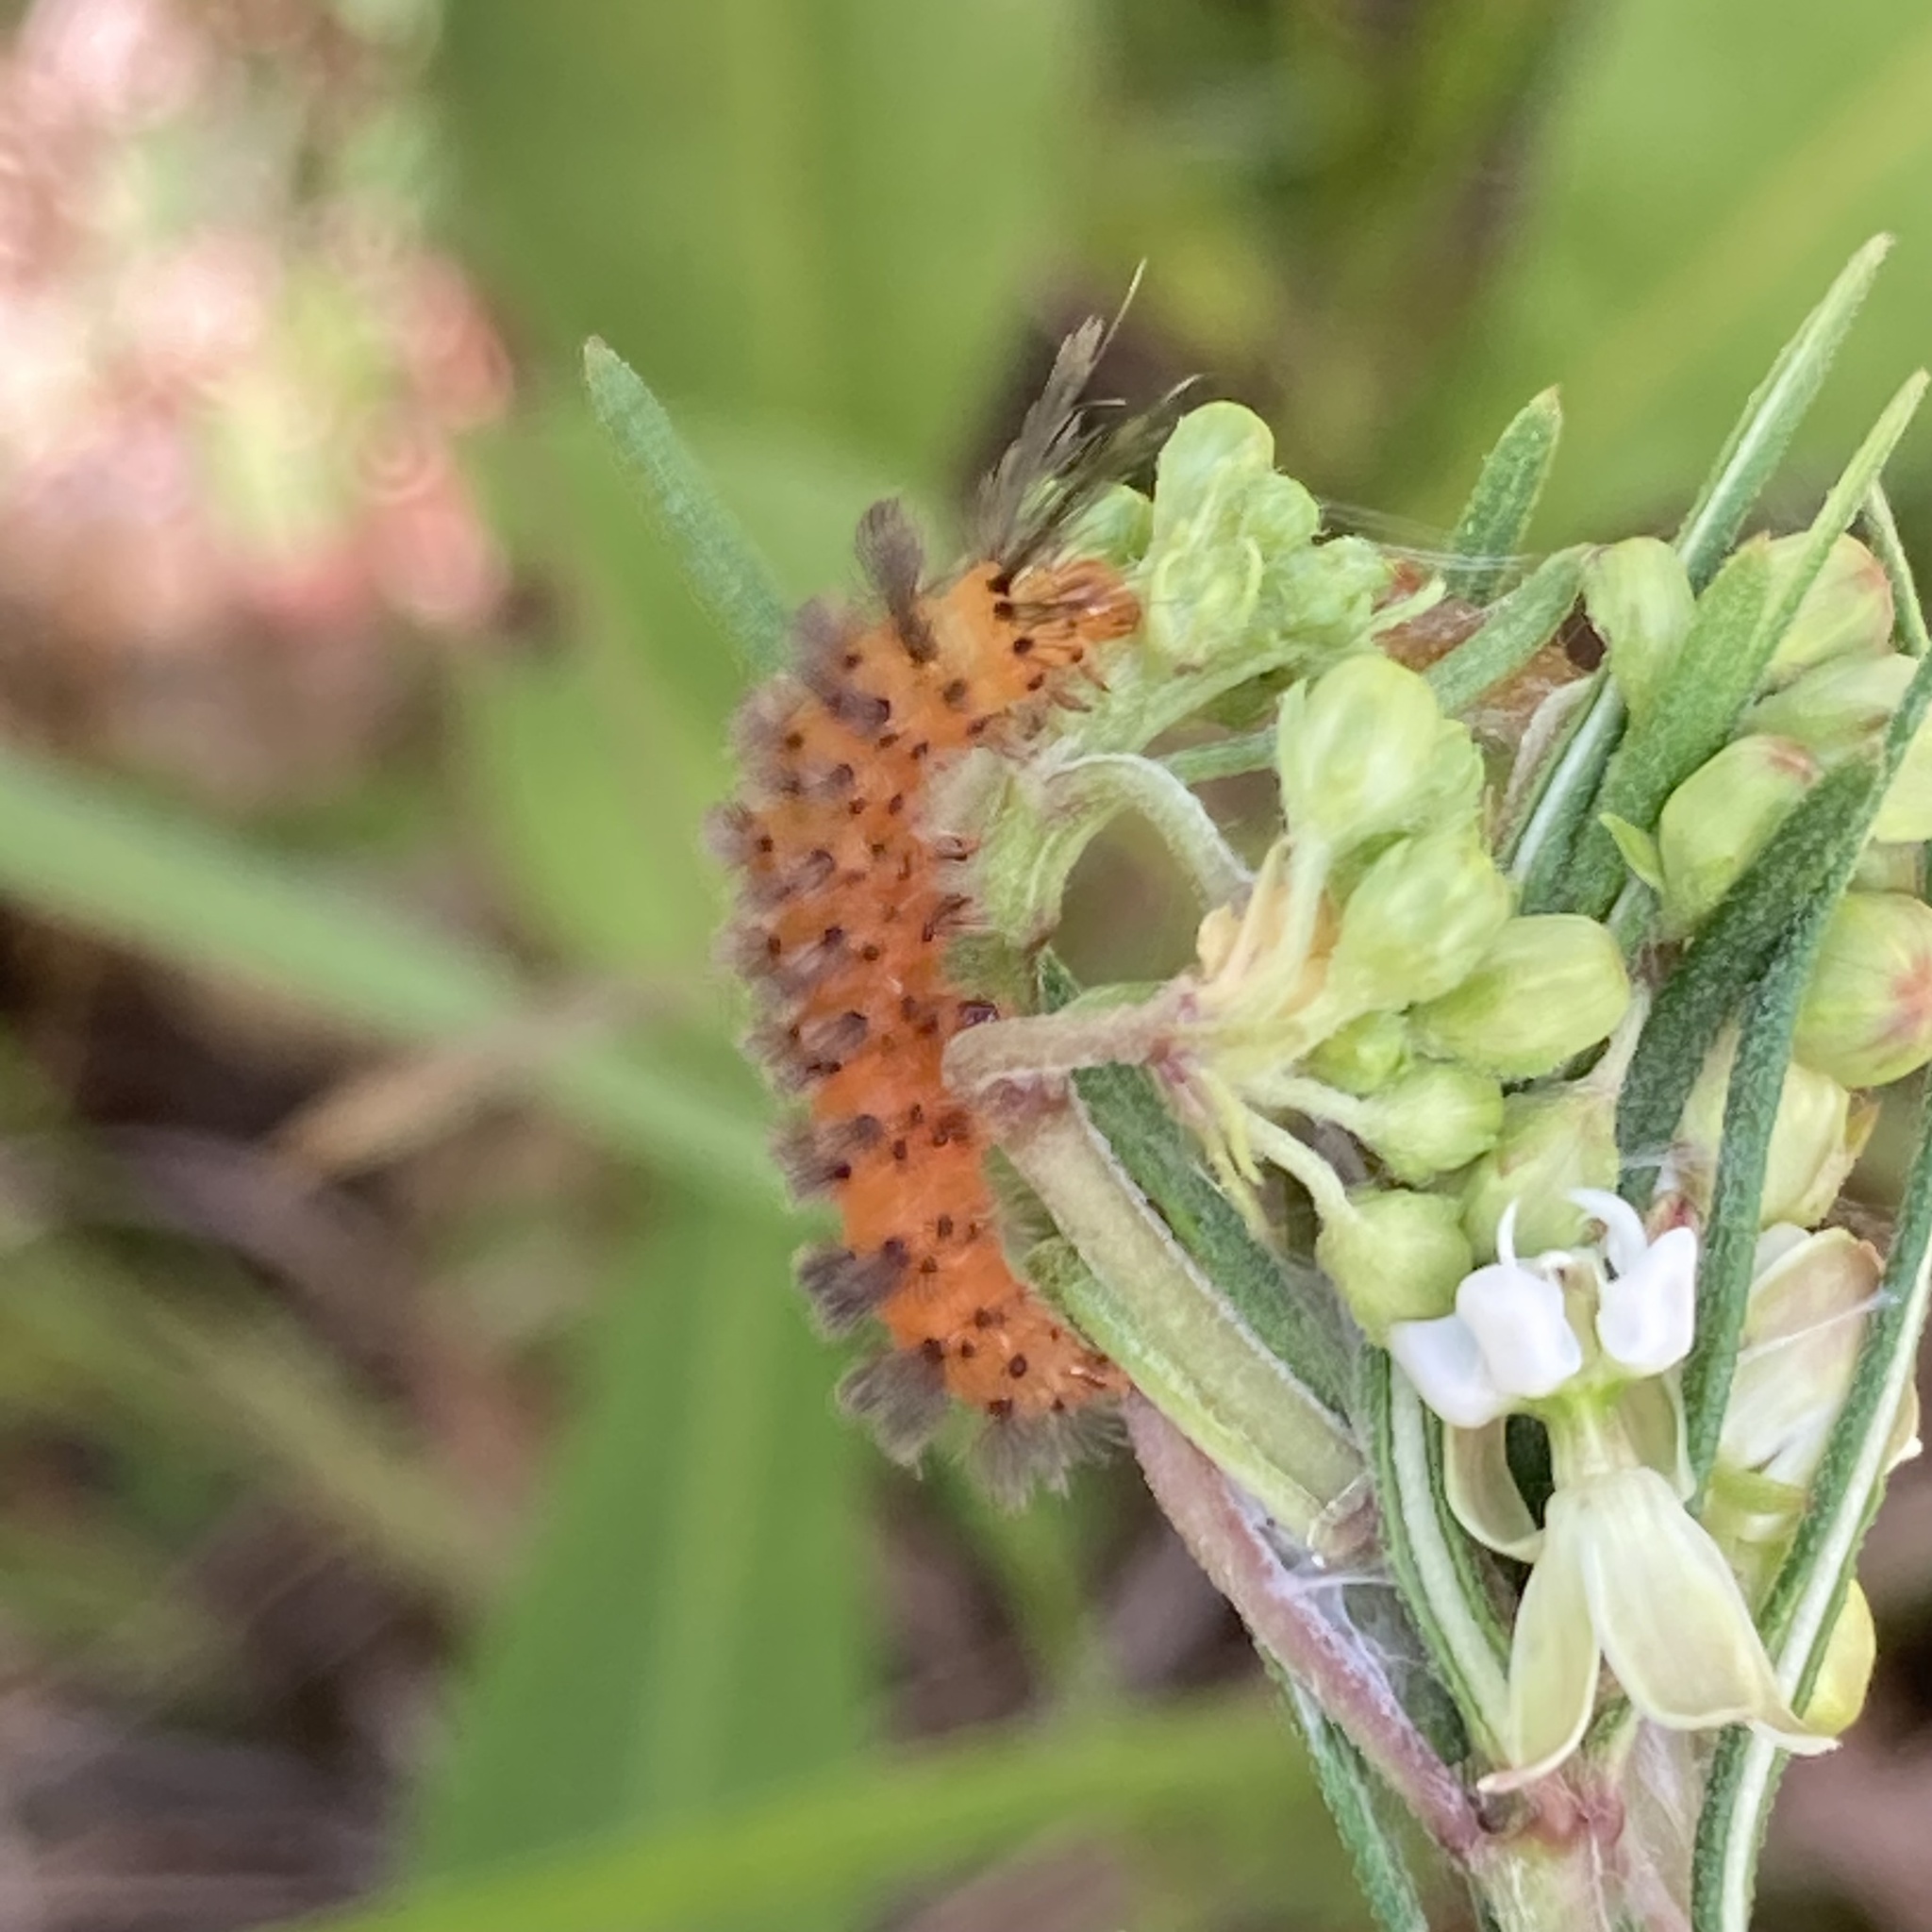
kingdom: Animalia
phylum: Arthropoda
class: Insecta
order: Lepidoptera
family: Erebidae
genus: Cycnia
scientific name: Cycnia collaris
